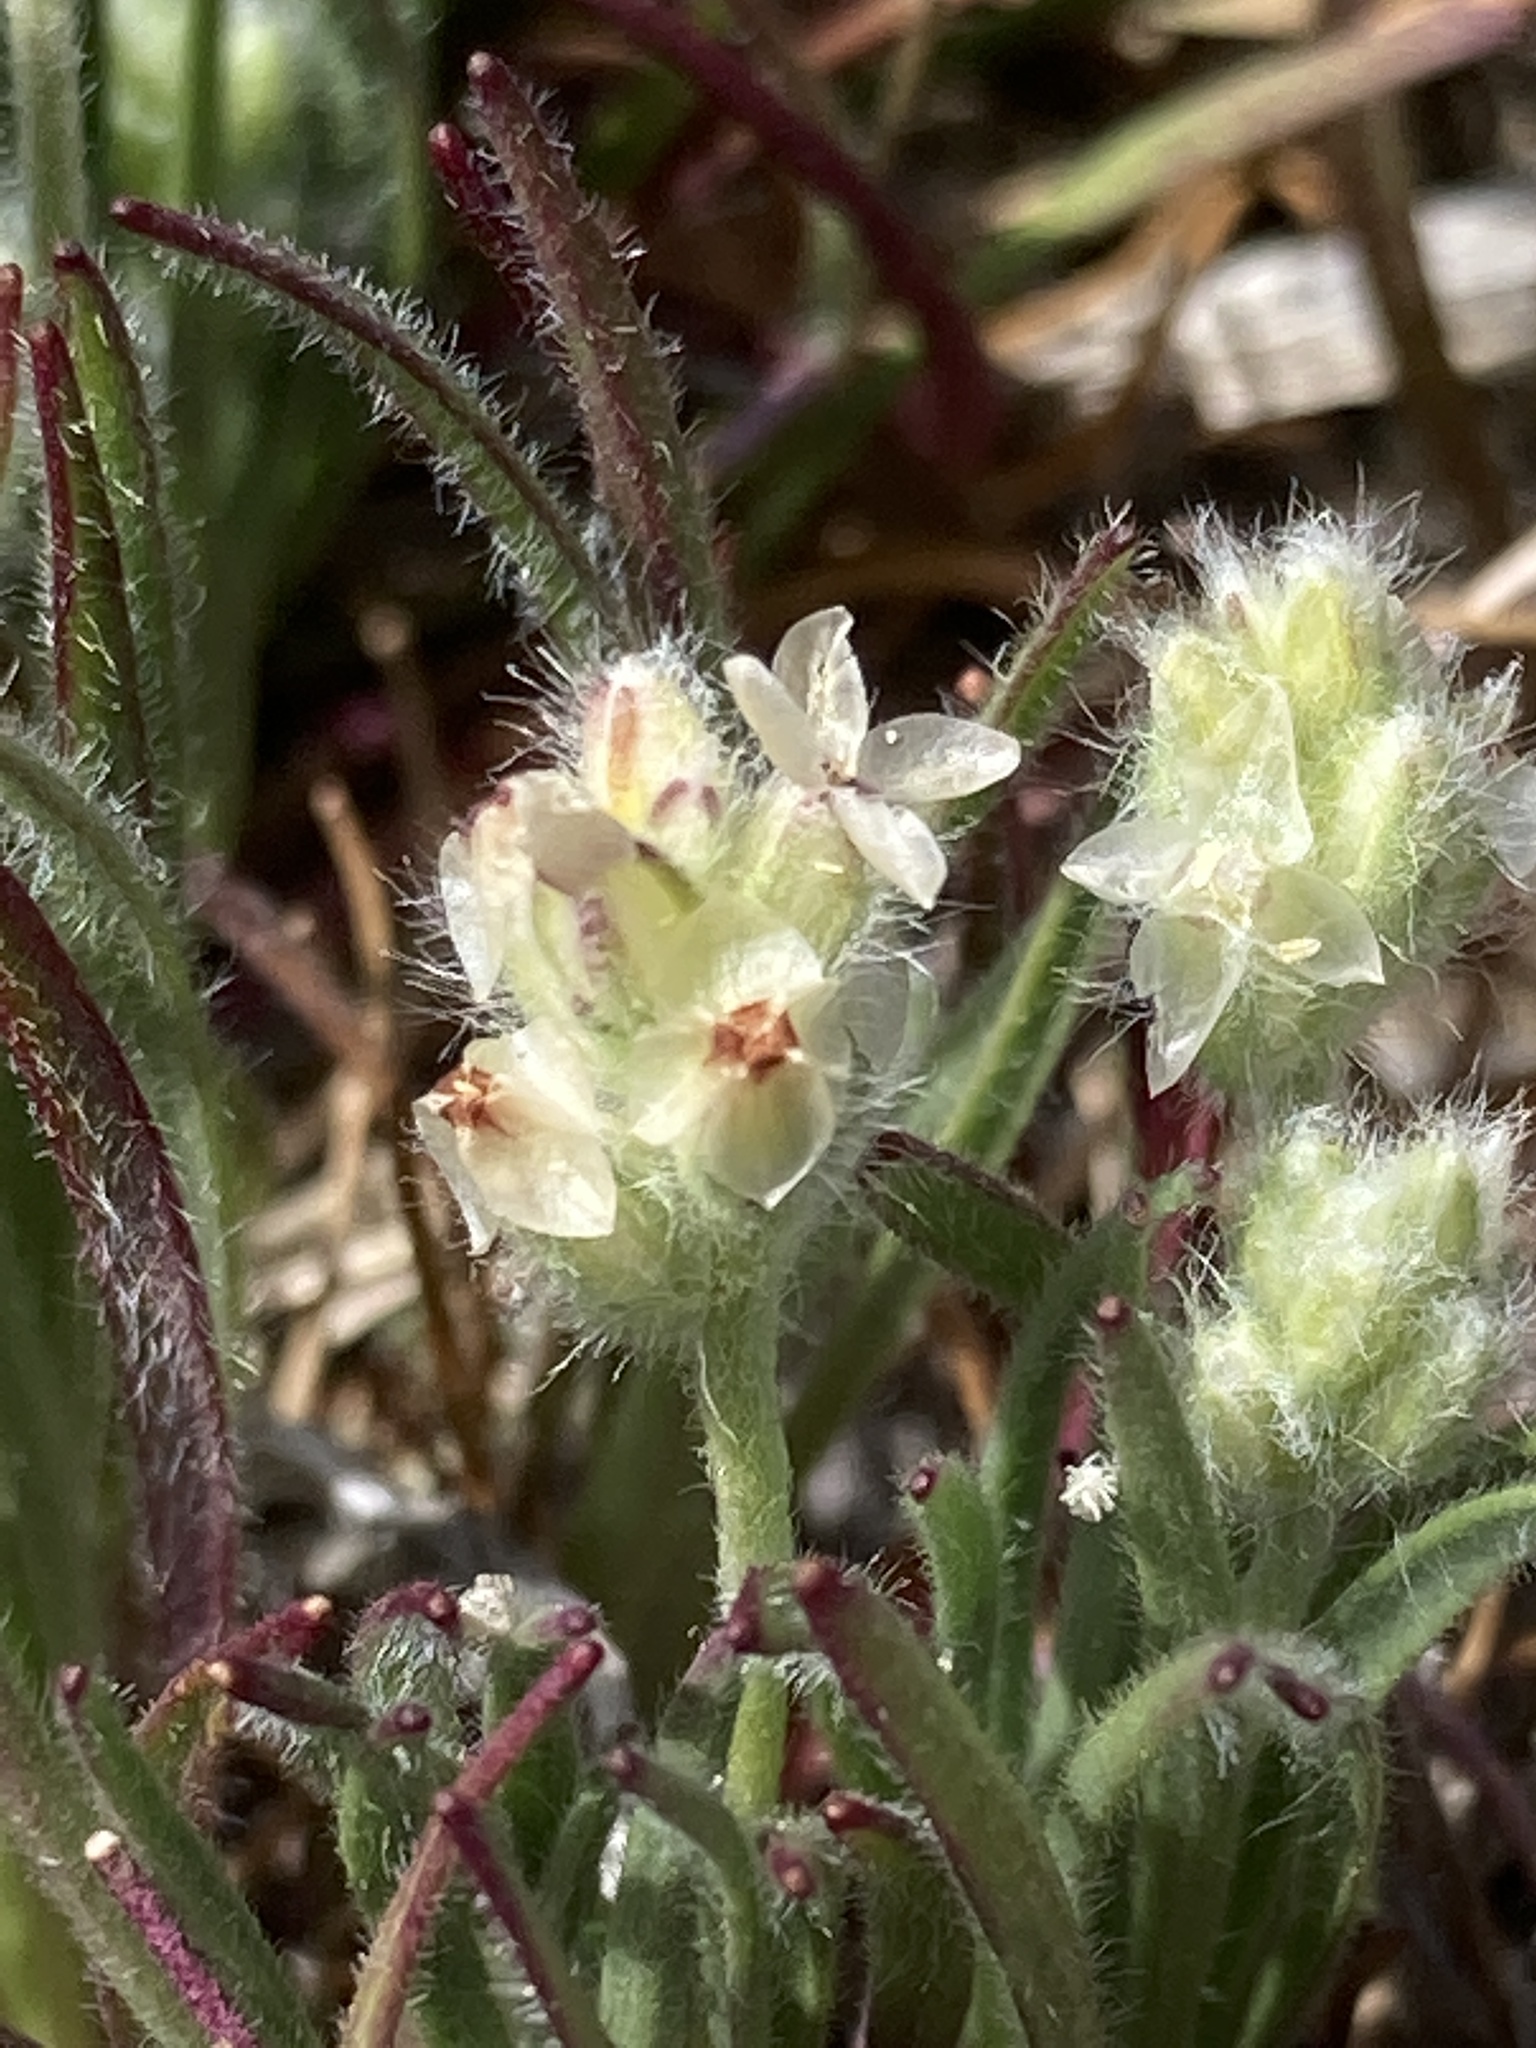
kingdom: Plantae
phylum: Tracheophyta
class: Magnoliopsida
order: Lamiales
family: Plantaginaceae
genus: Plantago
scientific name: Plantago erecta
